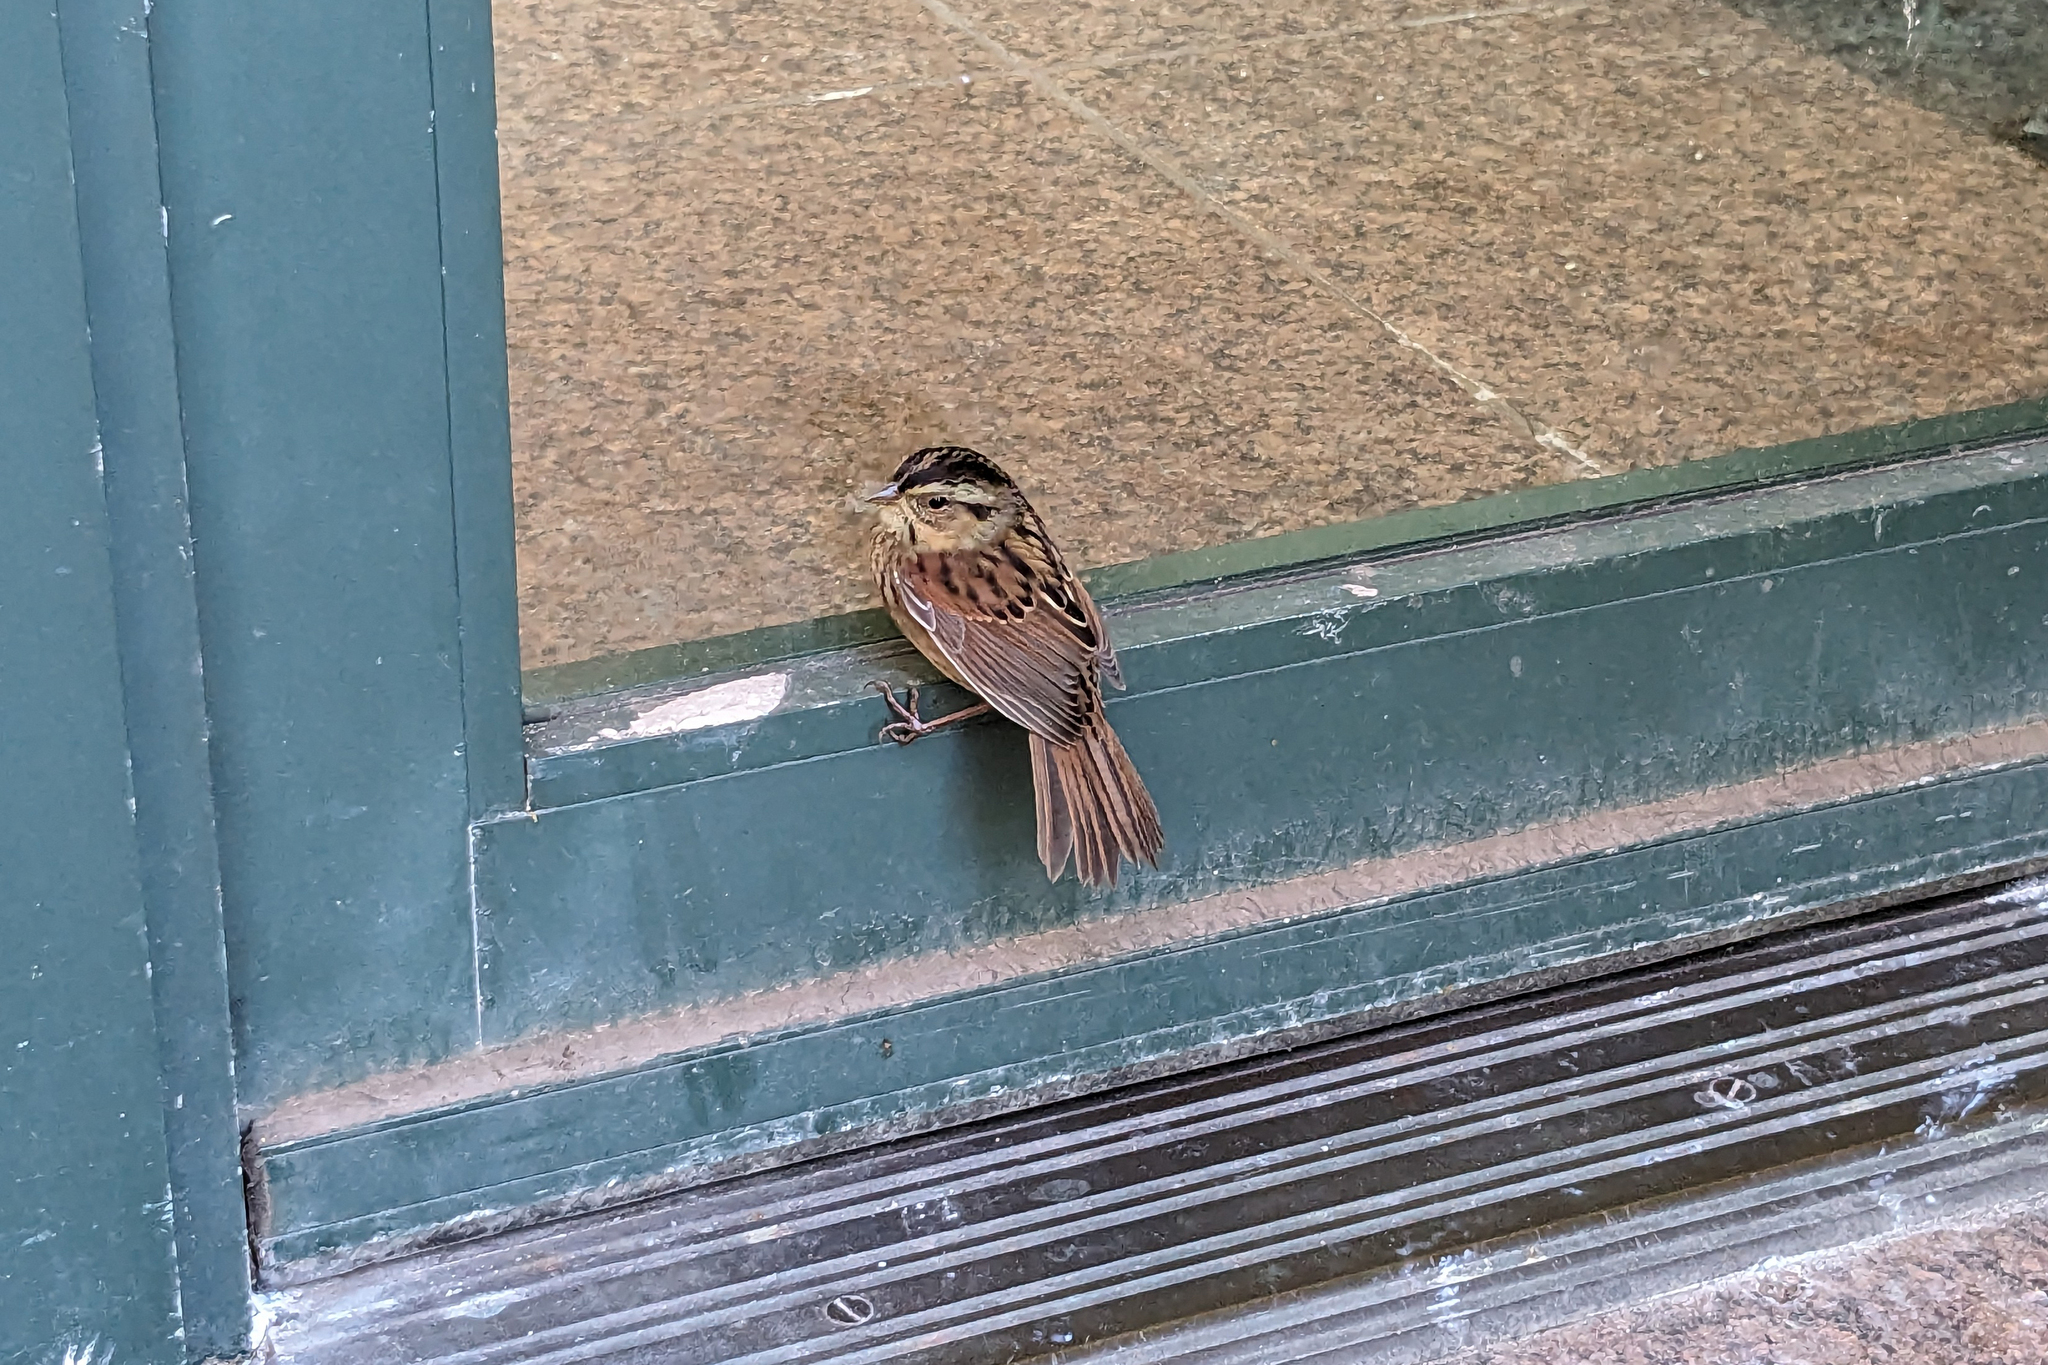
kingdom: Animalia
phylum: Chordata
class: Aves
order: Passeriformes
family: Passerellidae
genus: Melospiza
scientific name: Melospiza georgiana
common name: Swamp sparrow
